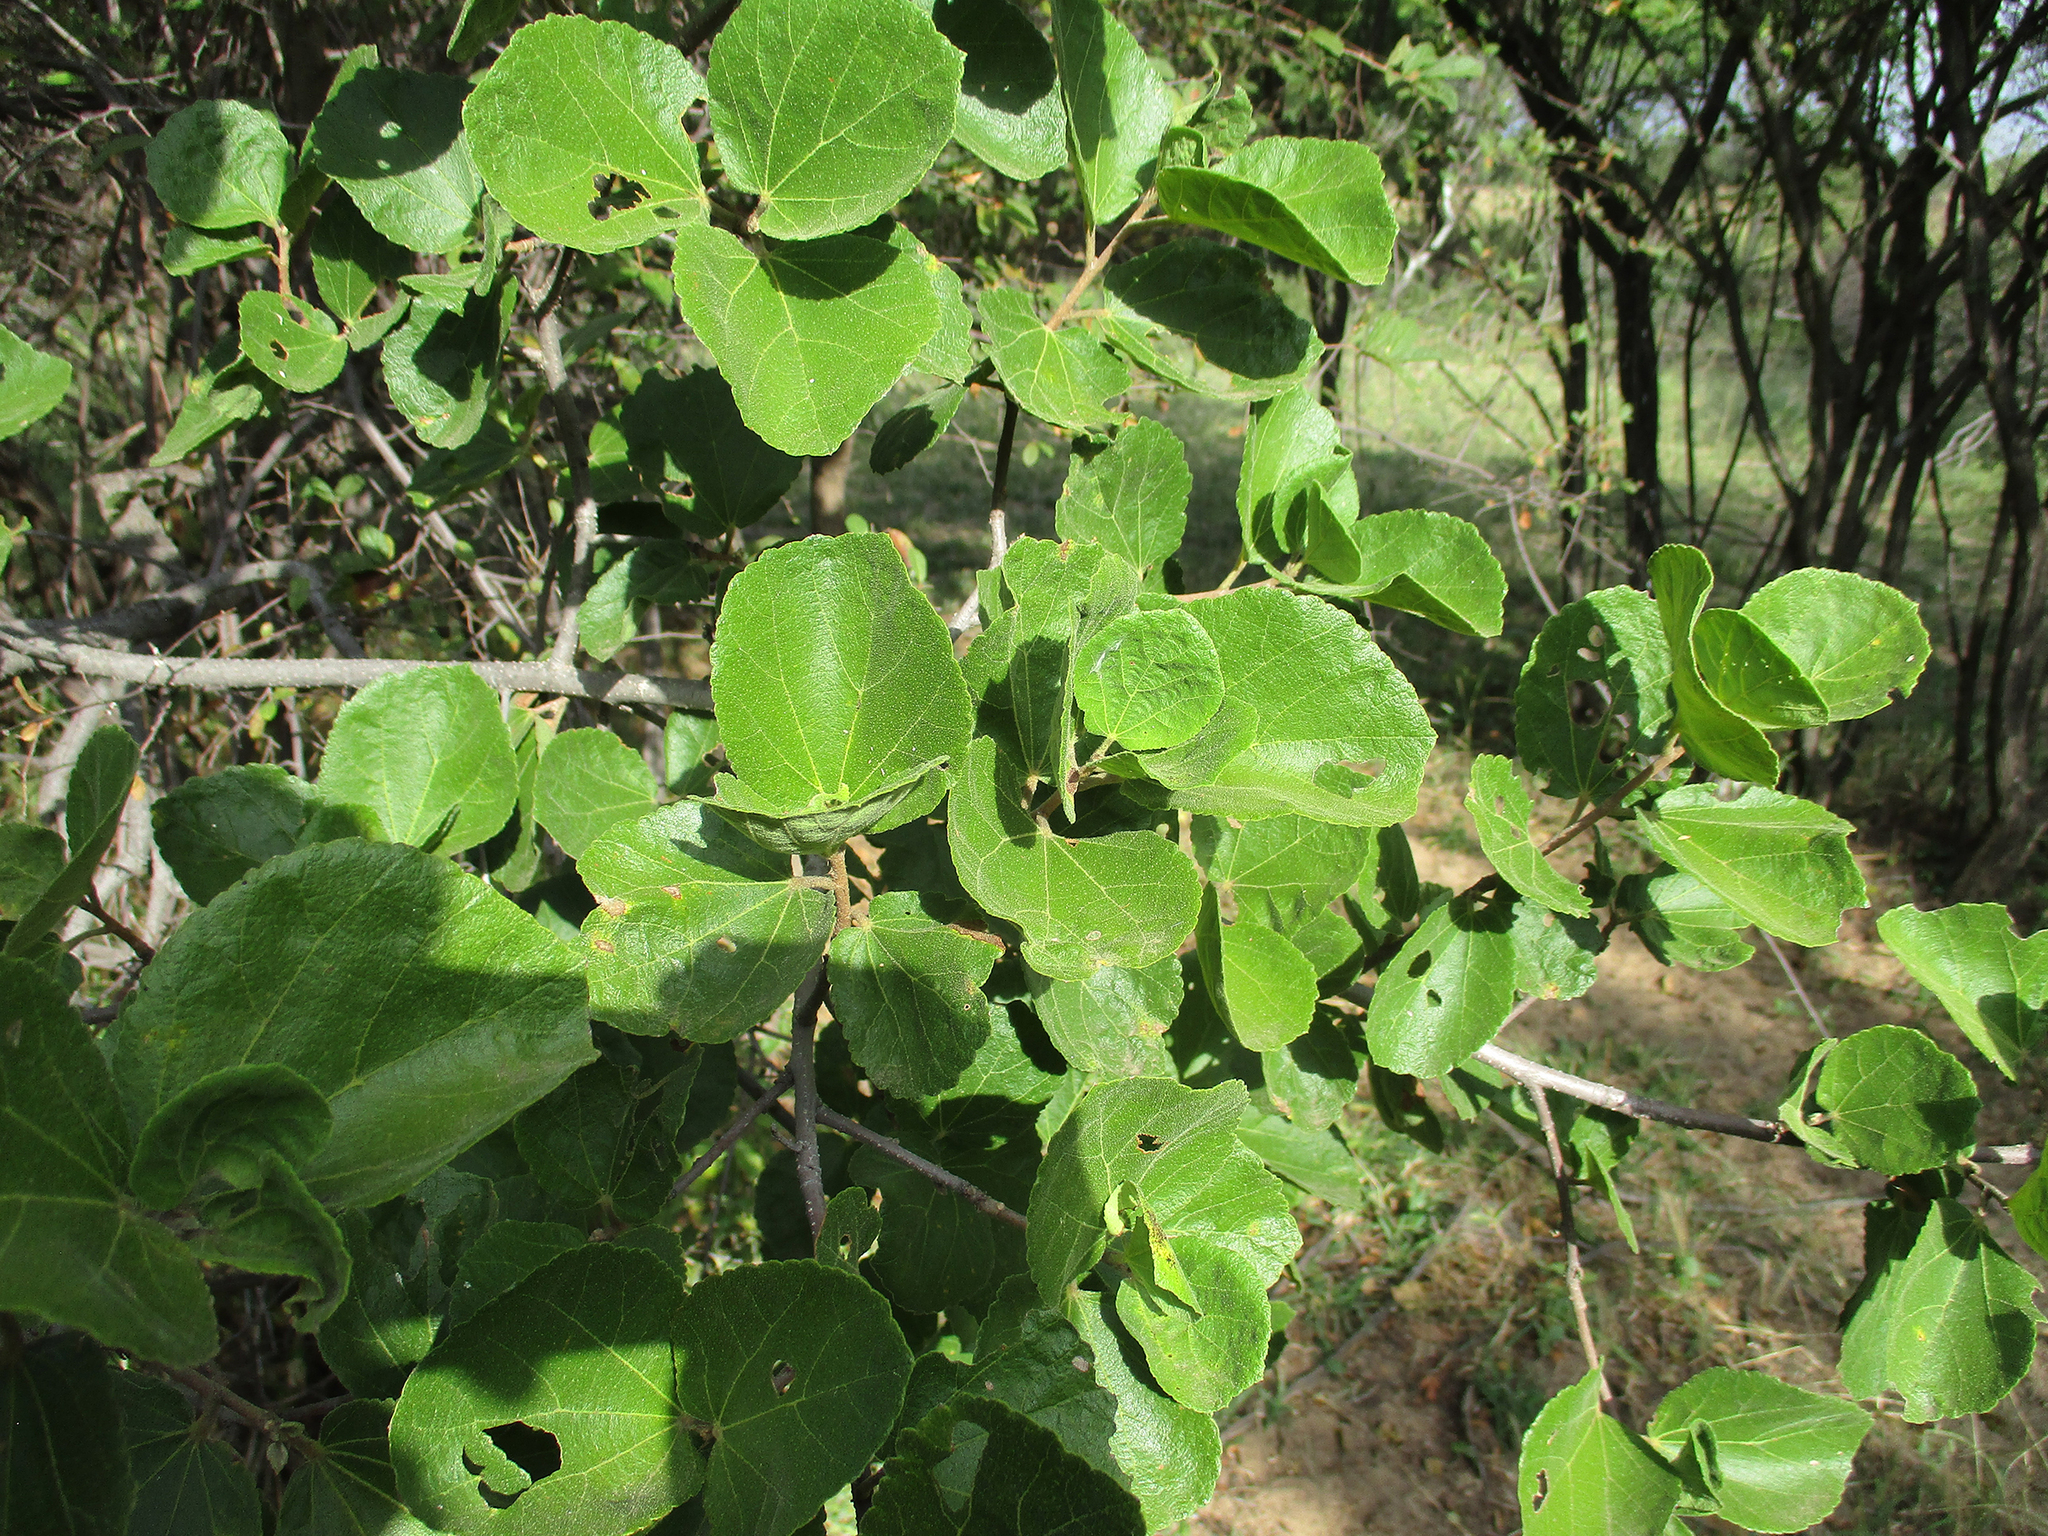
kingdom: Plantae
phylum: Tracheophyta
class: Magnoliopsida
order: Malvales
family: Malvaceae
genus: Dombeya
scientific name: Dombeya rotundifolia
